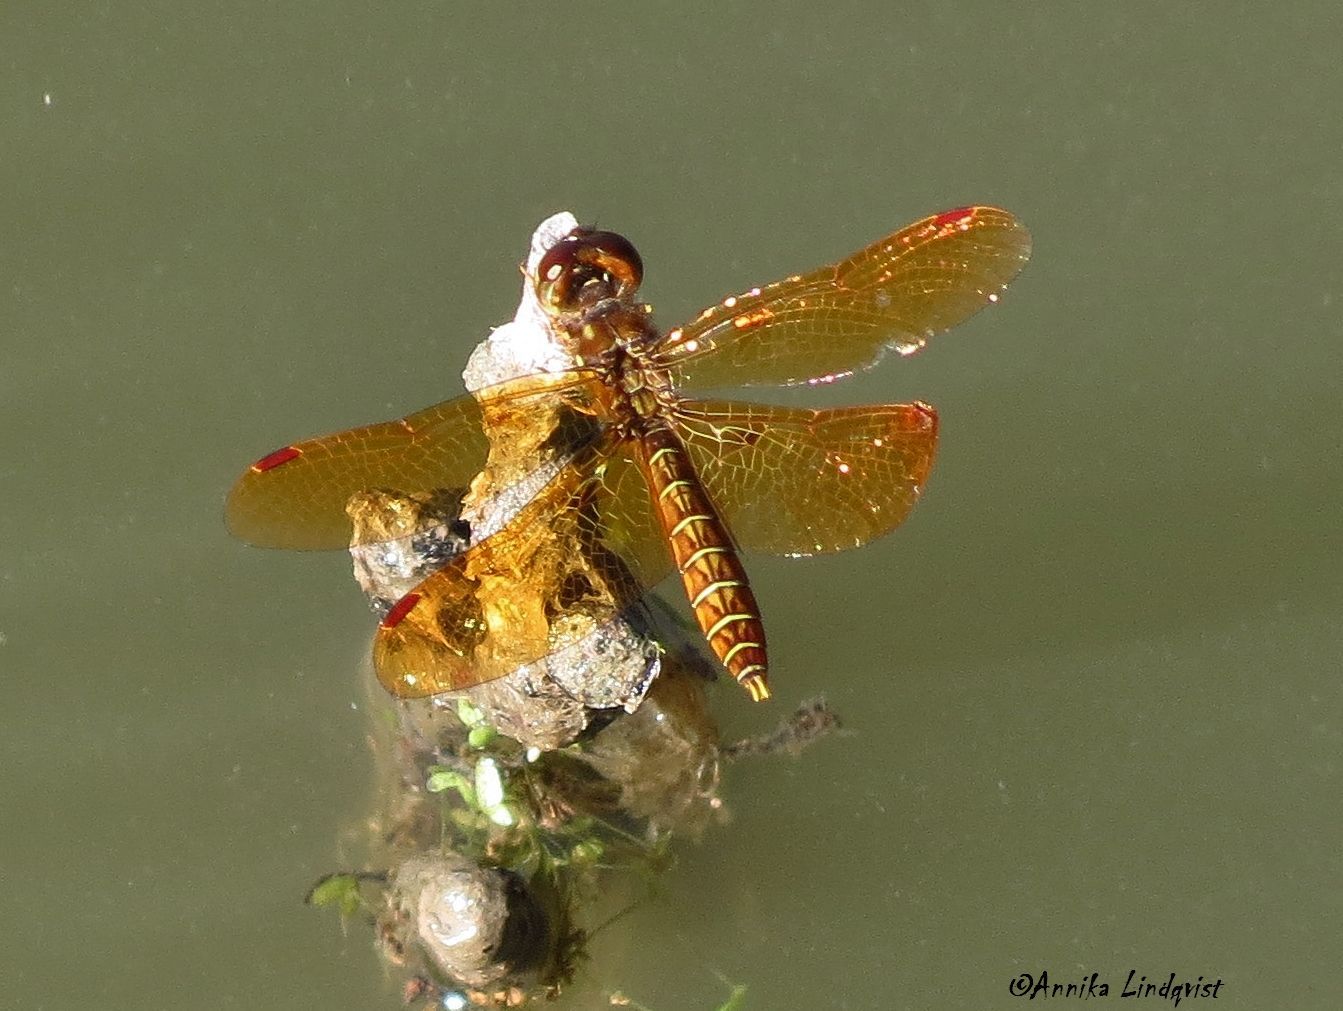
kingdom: Animalia
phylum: Arthropoda
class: Insecta
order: Odonata
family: Libellulidae
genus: Perithemis
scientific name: Perithemis tenera
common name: Eastern amberwing
